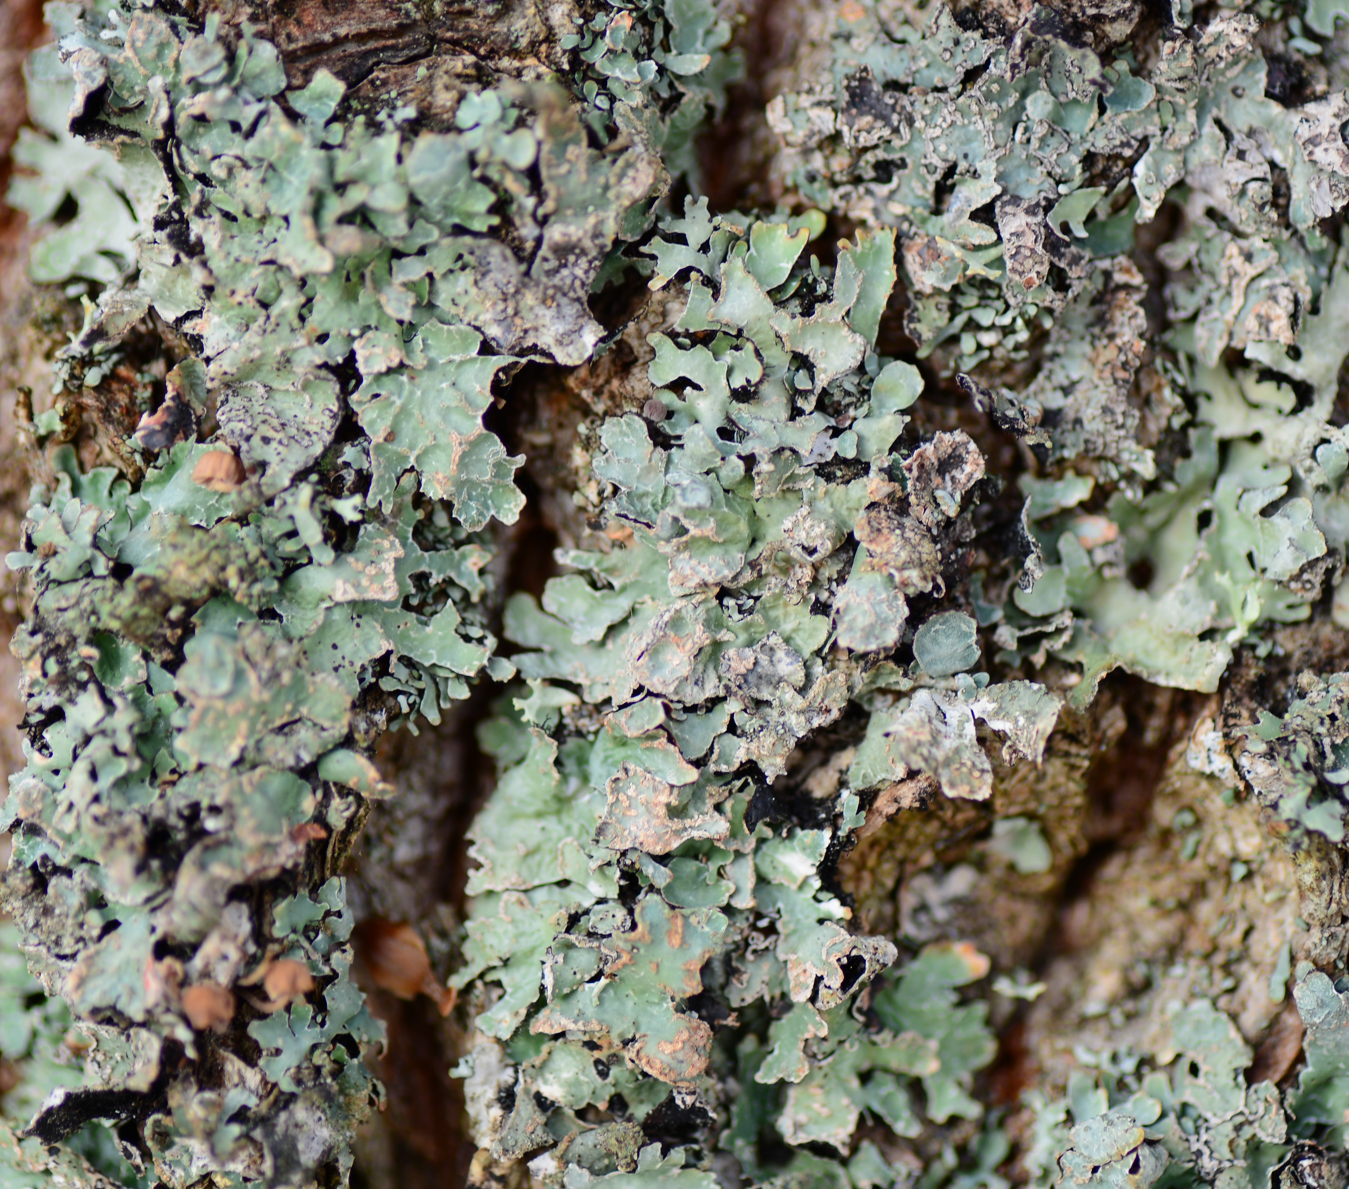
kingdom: Fungi
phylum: Ascomycota
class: Lecanoromycetes
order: Lecanorales
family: Parmeliaceae
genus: Parmelia
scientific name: Parmelia sulcata
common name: Netted shield lichen
